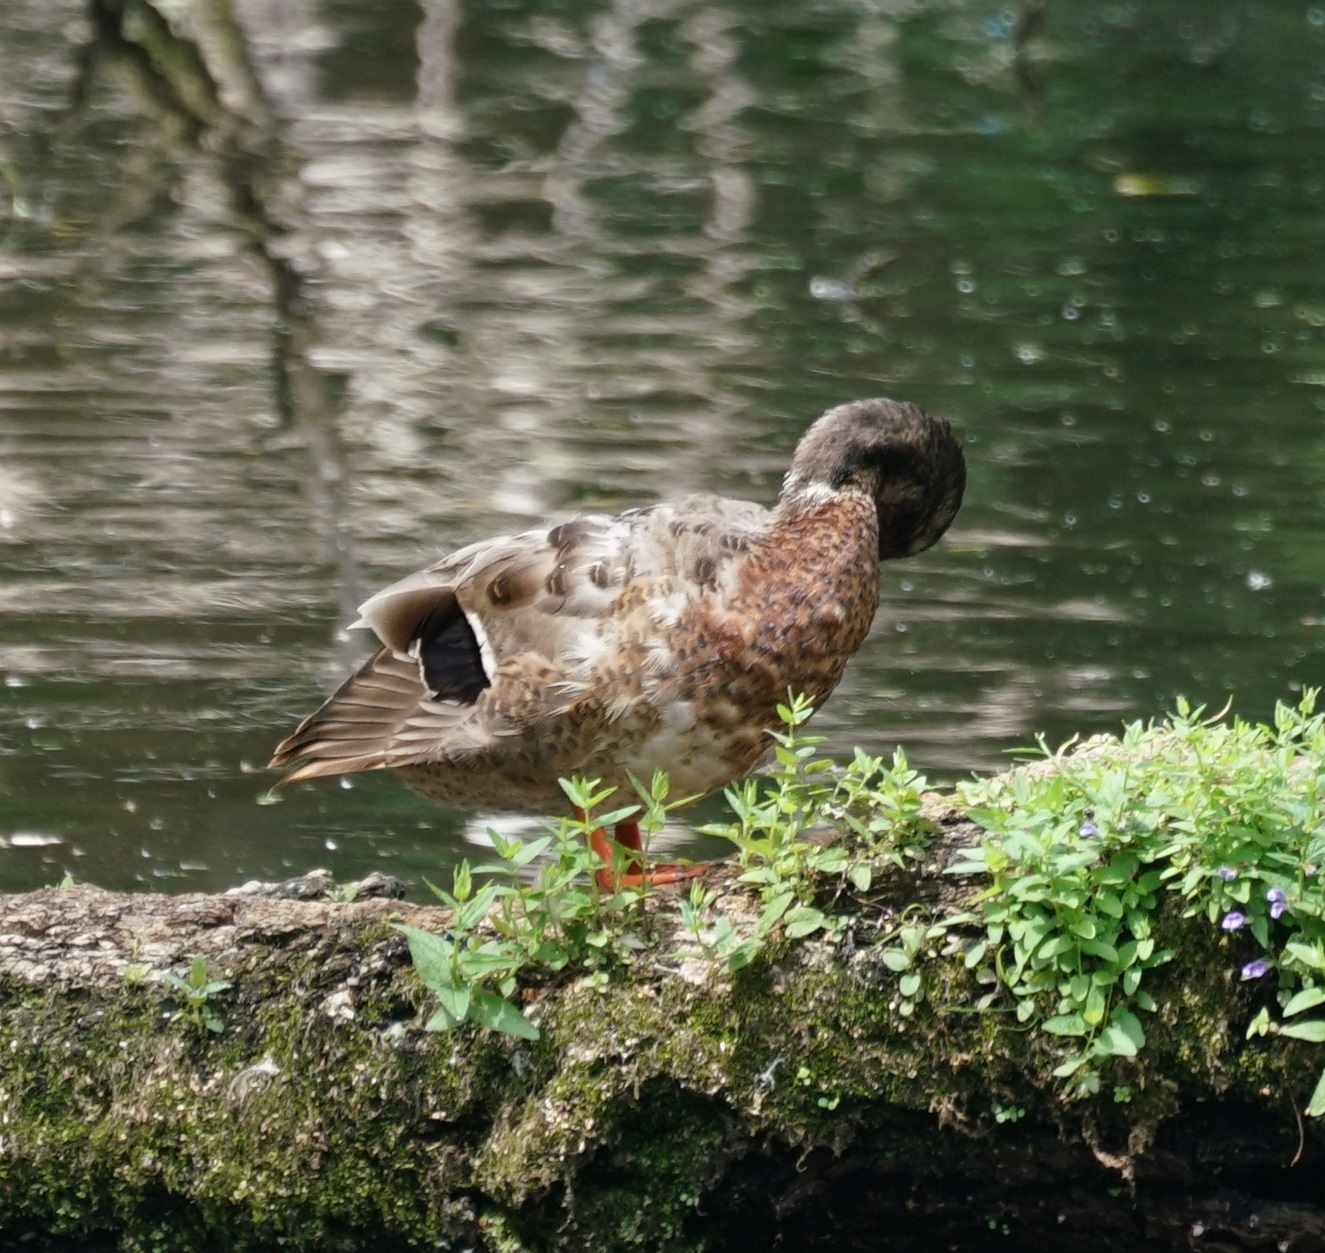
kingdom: Animalia
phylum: Chordata
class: Aves
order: Anseriformes
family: Anatidae
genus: Anas
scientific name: Anas platyrhynchos
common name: Mallard
